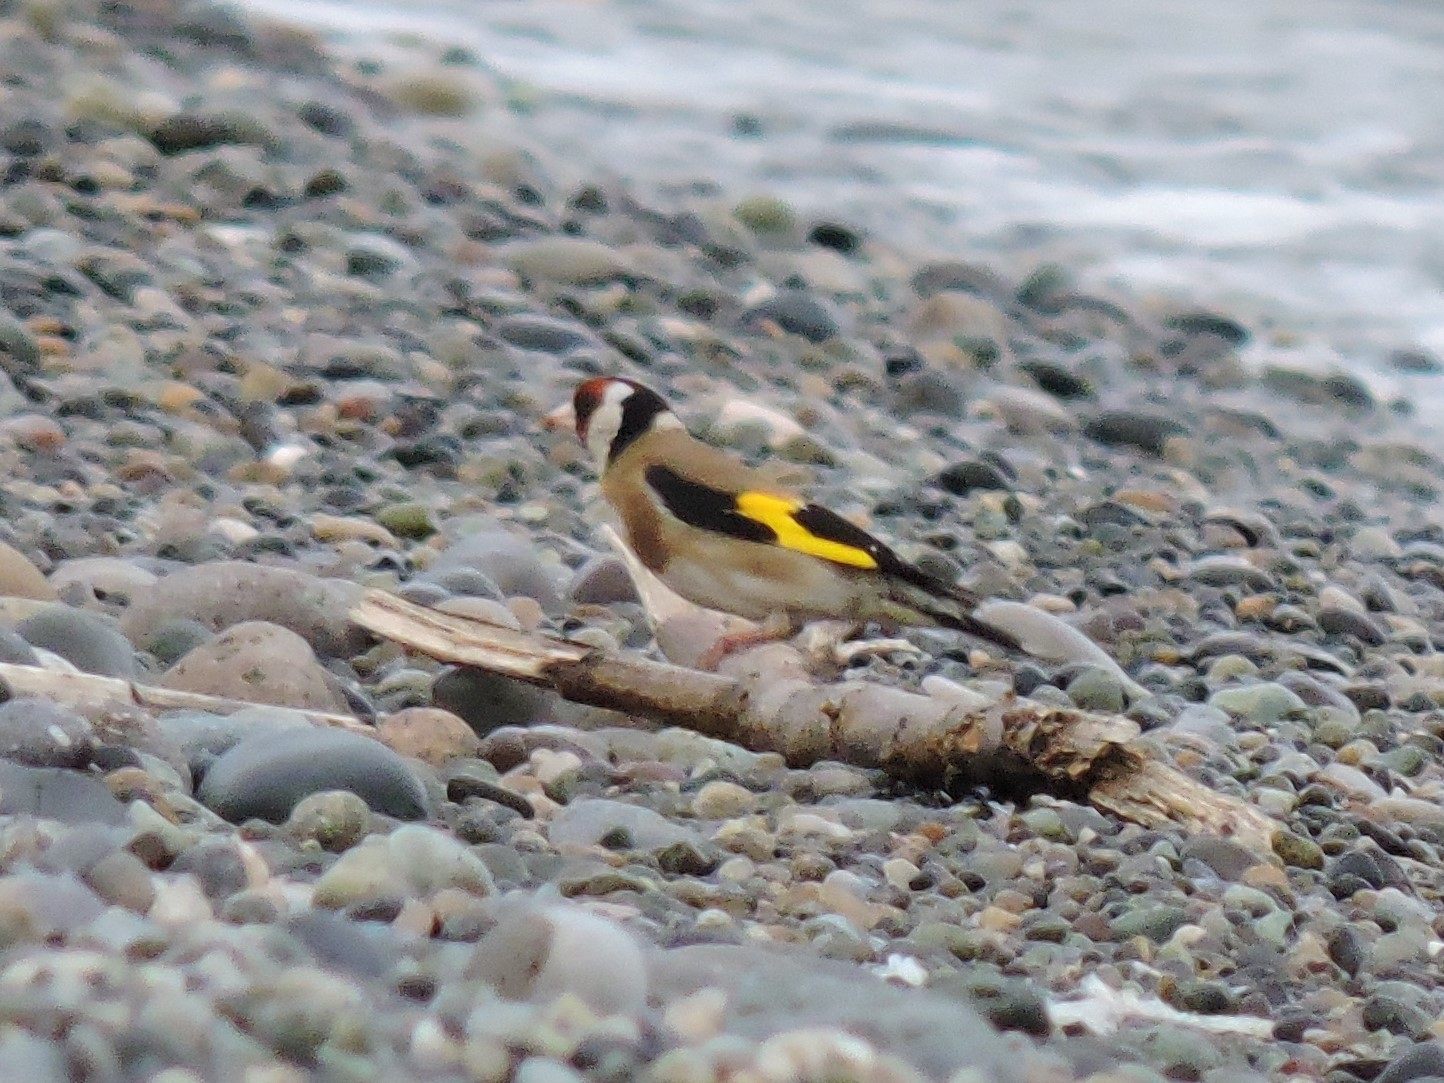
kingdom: Animalia
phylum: Chordata
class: Aves
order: Passeriformes
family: Fringillidae
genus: Carduelis
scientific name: Carduelis carduelis
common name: European goldfinch
